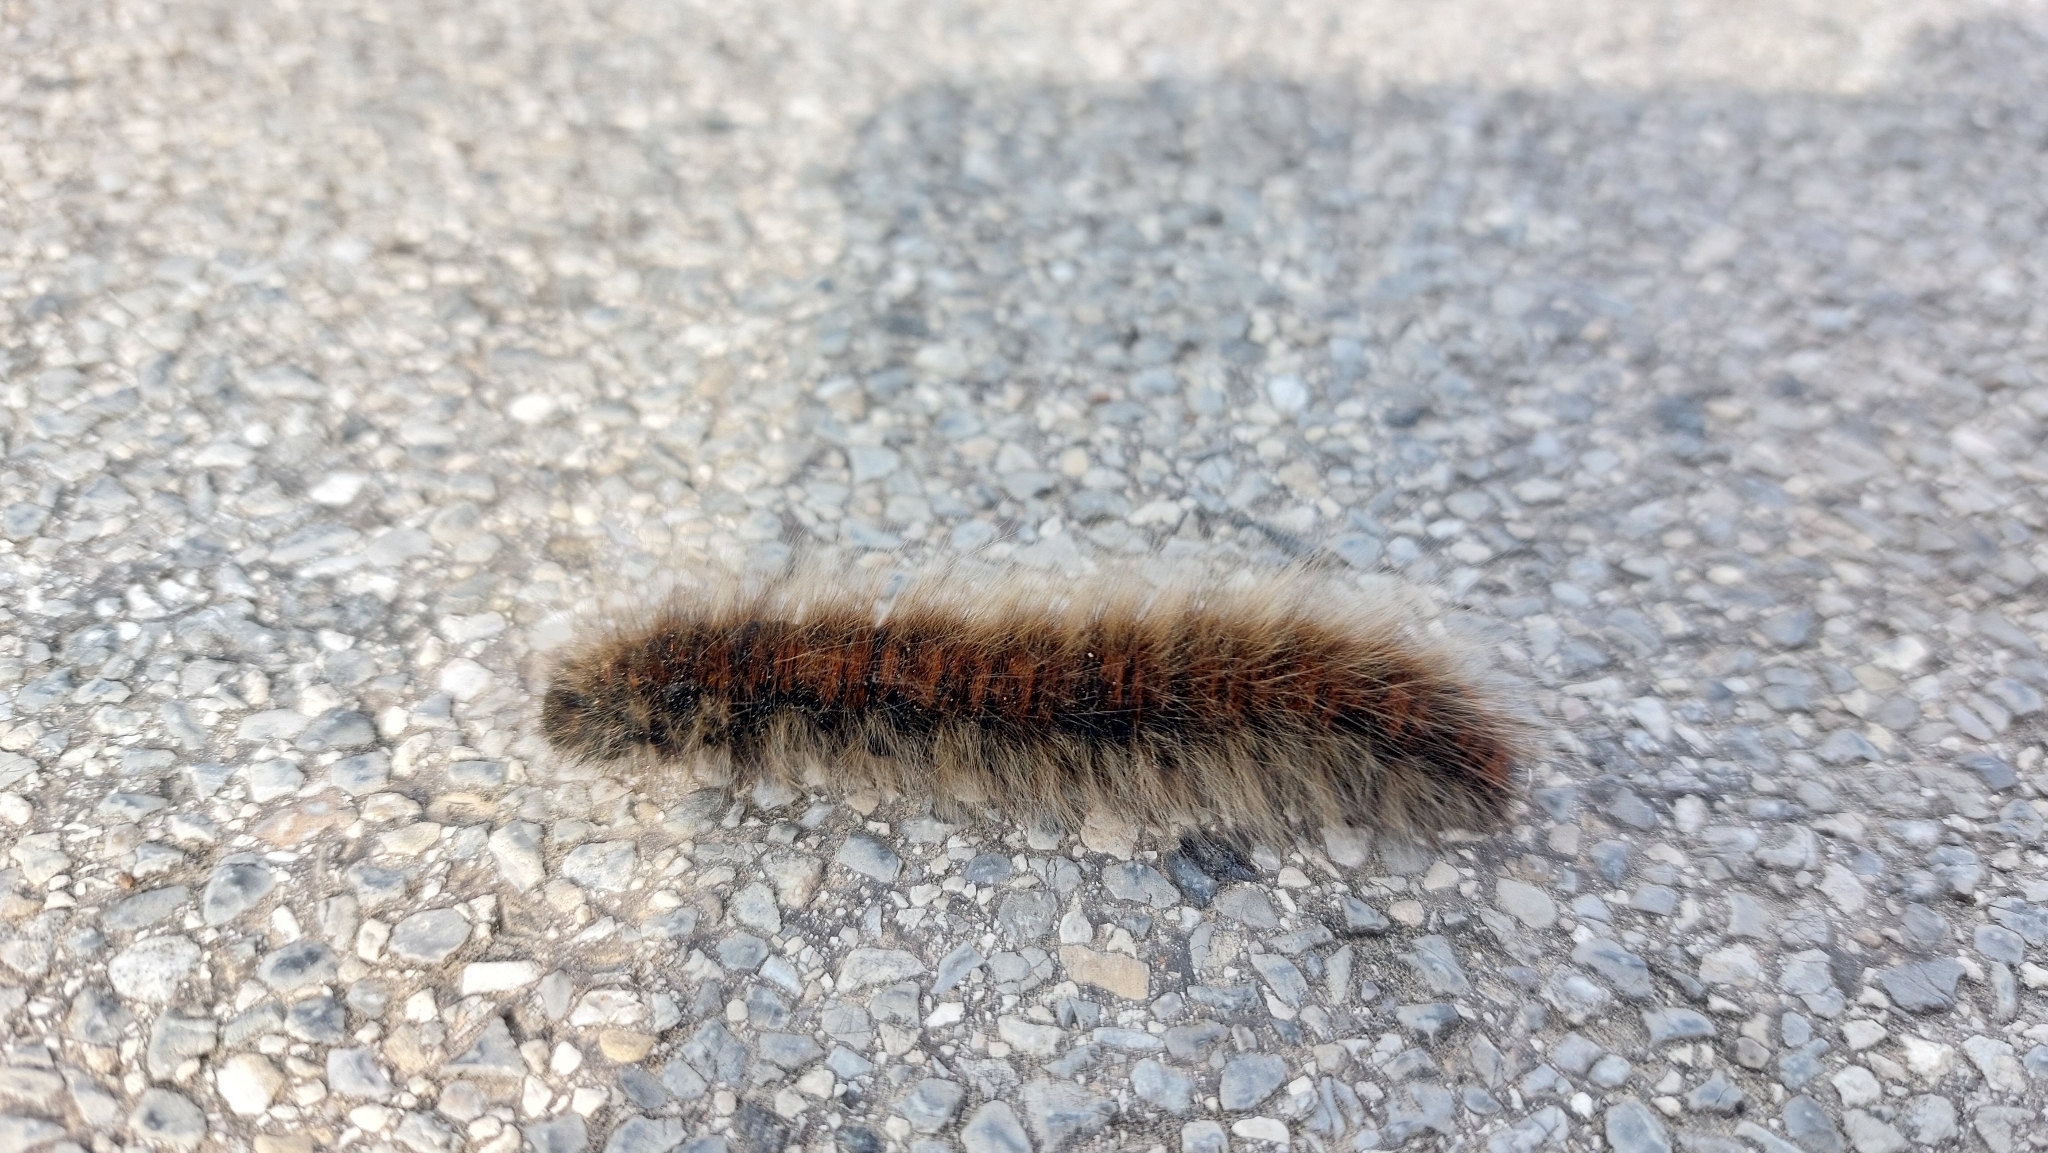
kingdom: Animalia
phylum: Arthropoda
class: Insecta
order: Lepidoptera
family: Lasiocampidae
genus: Macrothylacia
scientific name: Macrothylacia rubi
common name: Fox moth
